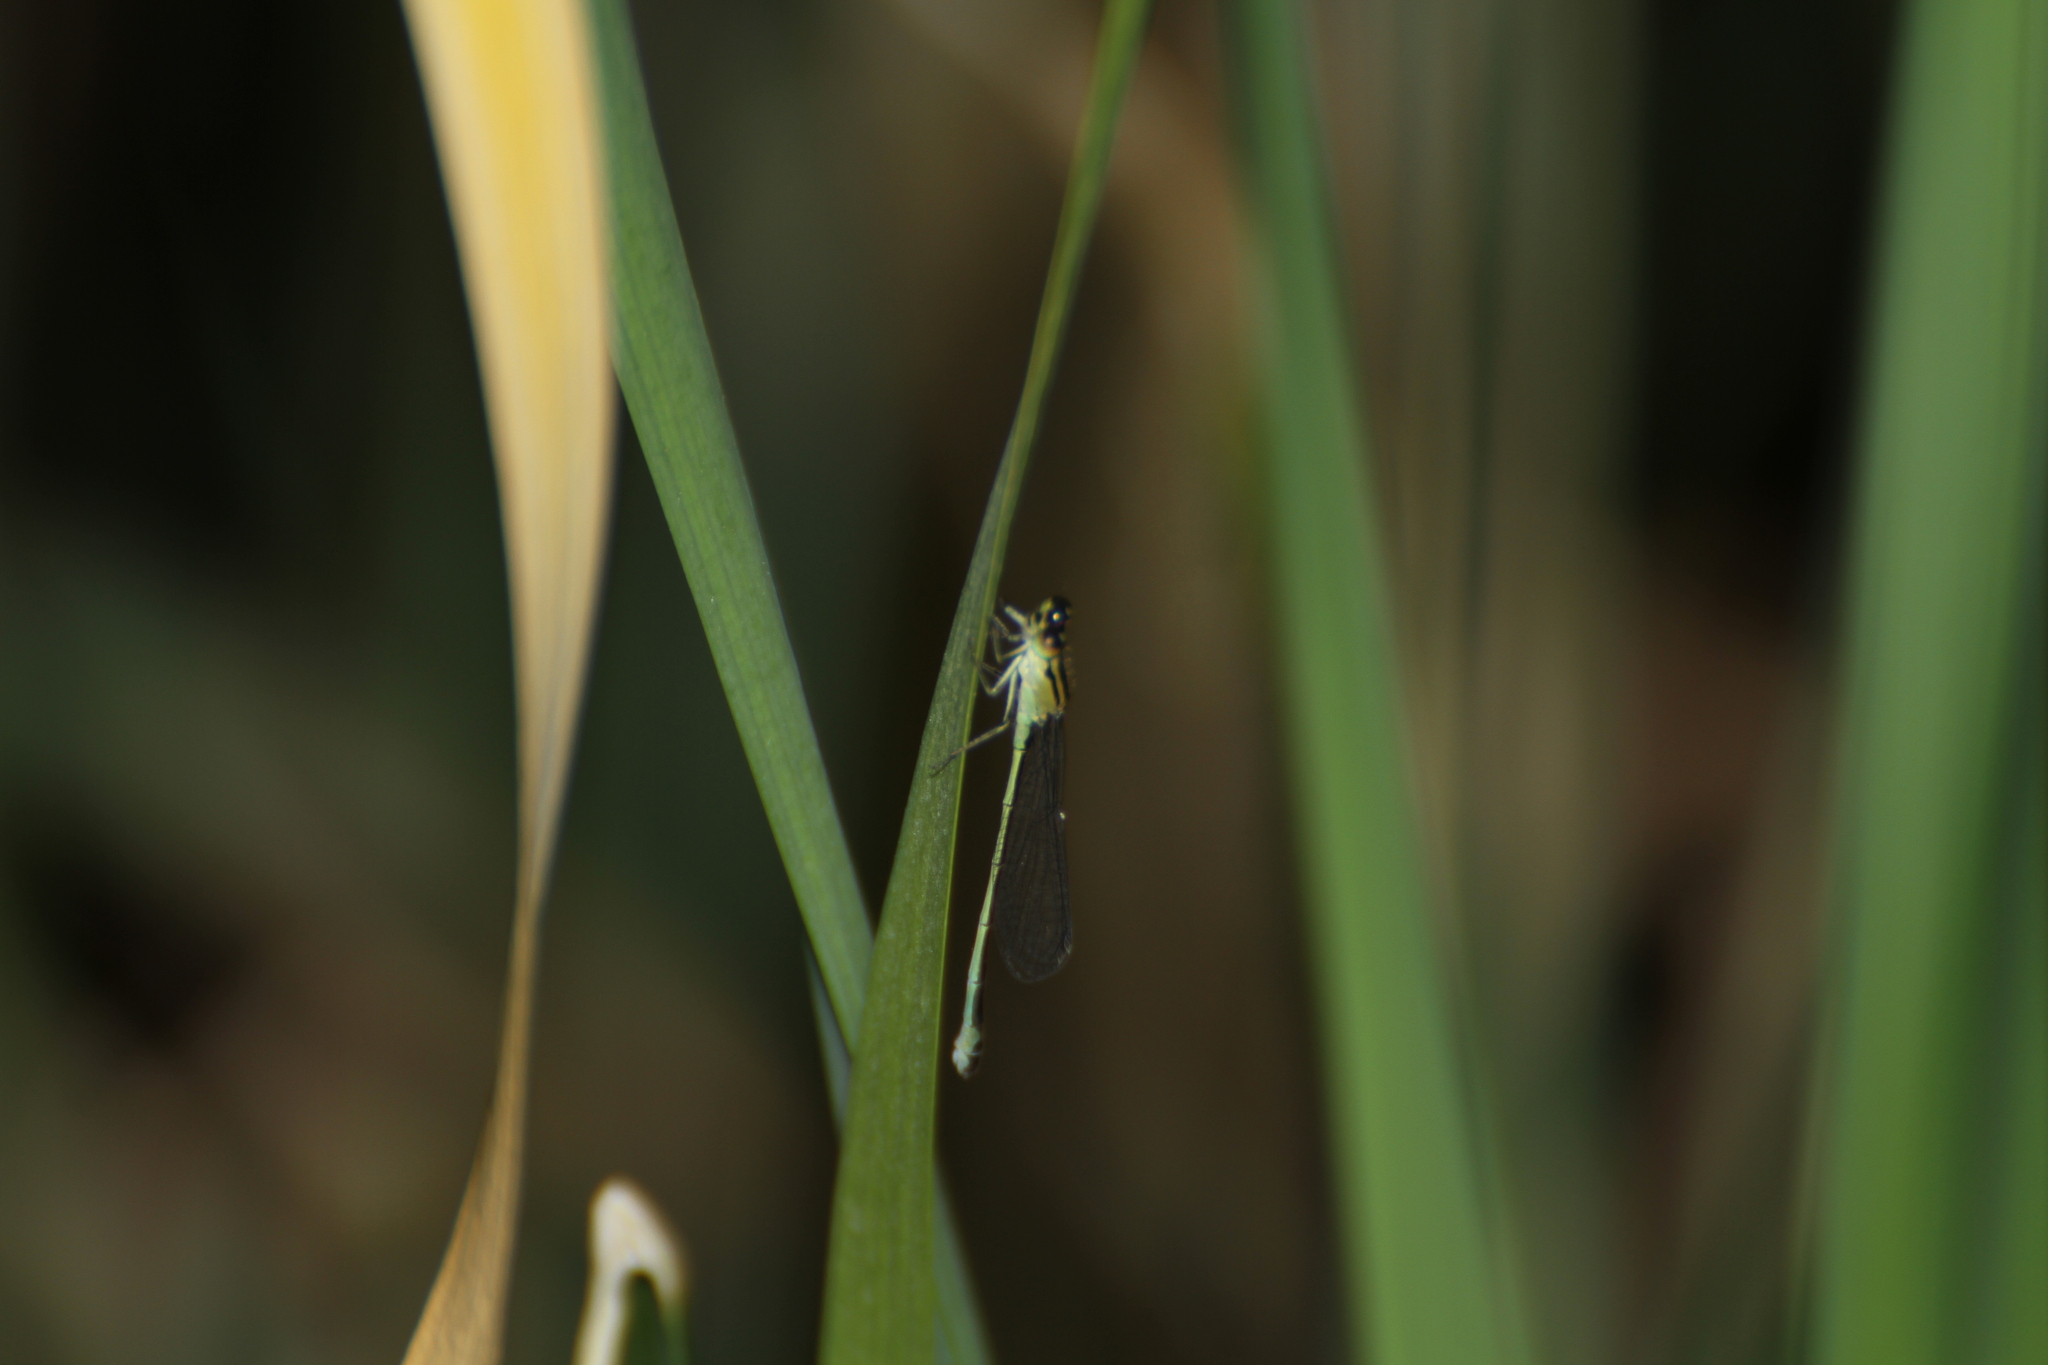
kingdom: Animalia
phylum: Arthropoda
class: Insecta
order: Odonata
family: Coenagrionidae
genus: Ischnura
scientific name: Ischnura elegans
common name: Blue-tailed damselfly
